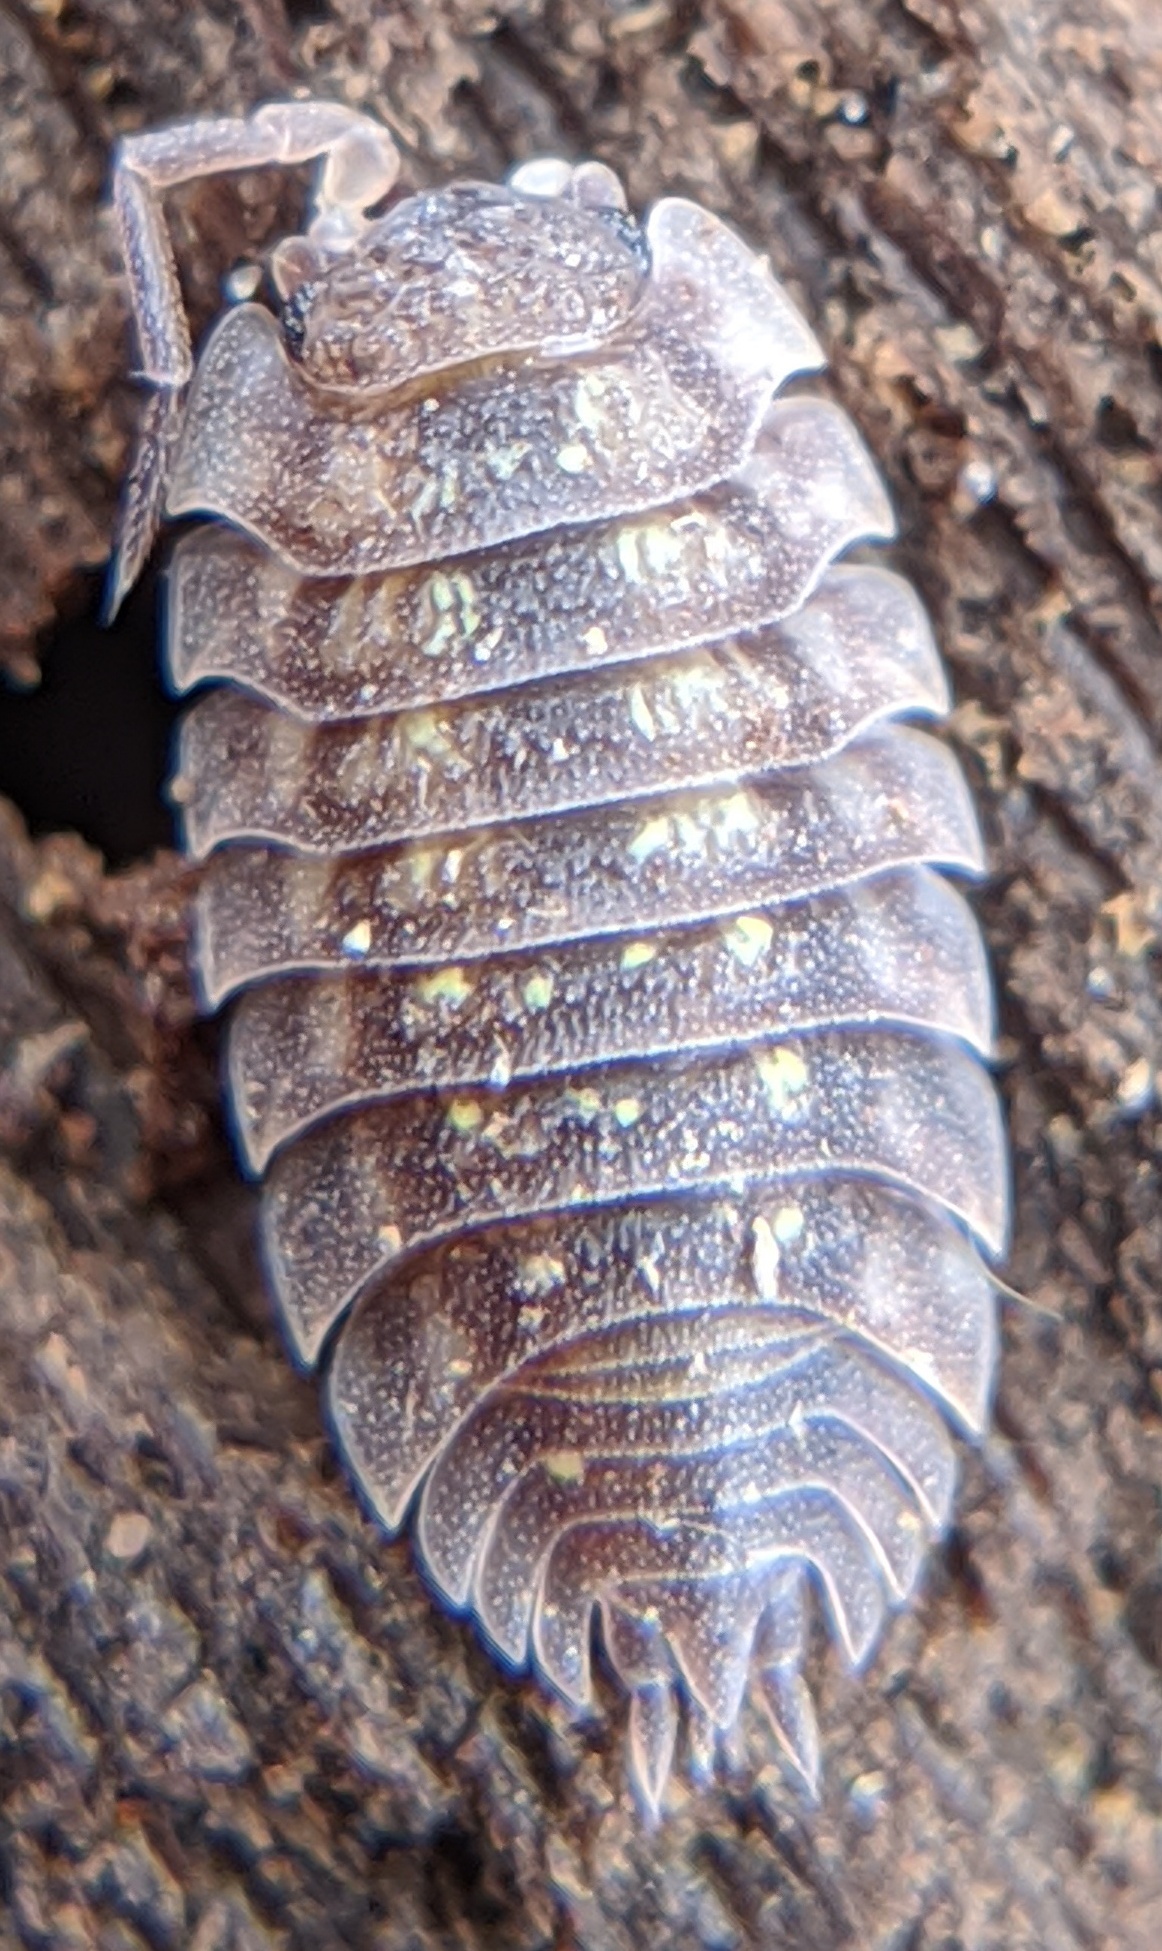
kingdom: Animalia
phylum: Arthropoda
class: Malacostraca
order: Isopoda
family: Oniscidae
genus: Oniscus
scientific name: Oniscus asellus
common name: Common shiny woodlouse
